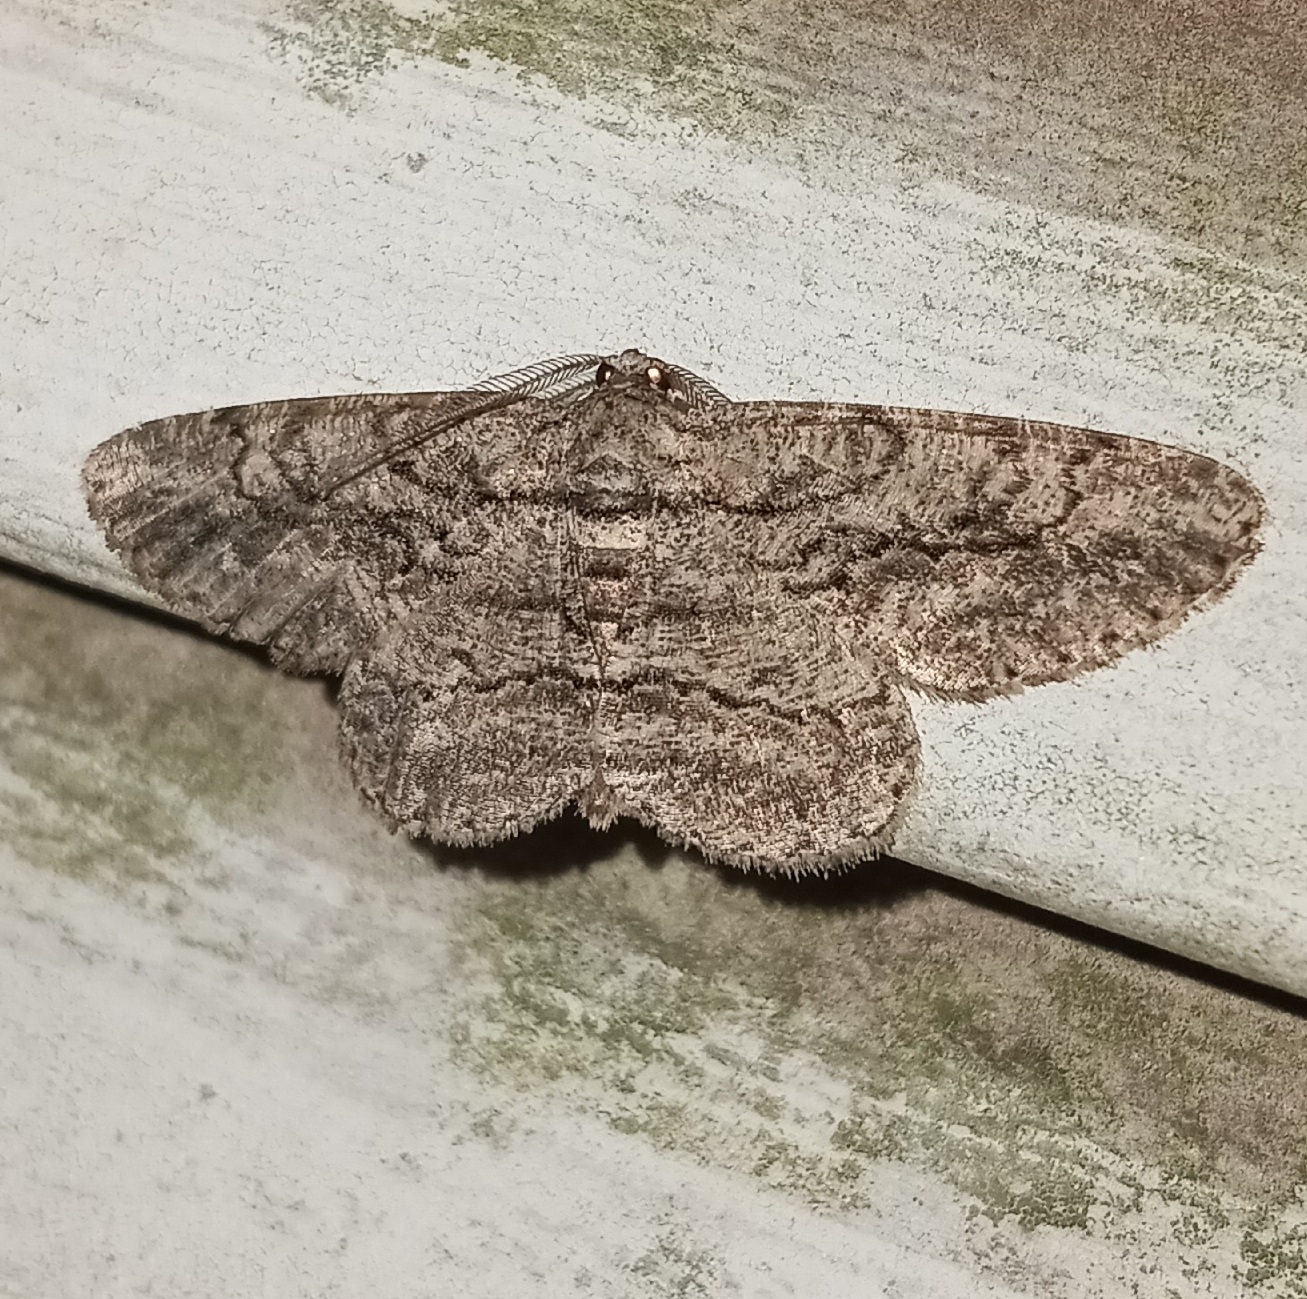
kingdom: Animalia
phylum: Arthropoda
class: Insecta
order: Lepidoptera
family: Geometridae
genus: Anavitrinella
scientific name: Anavitrinella pampinaria
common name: Common gray
